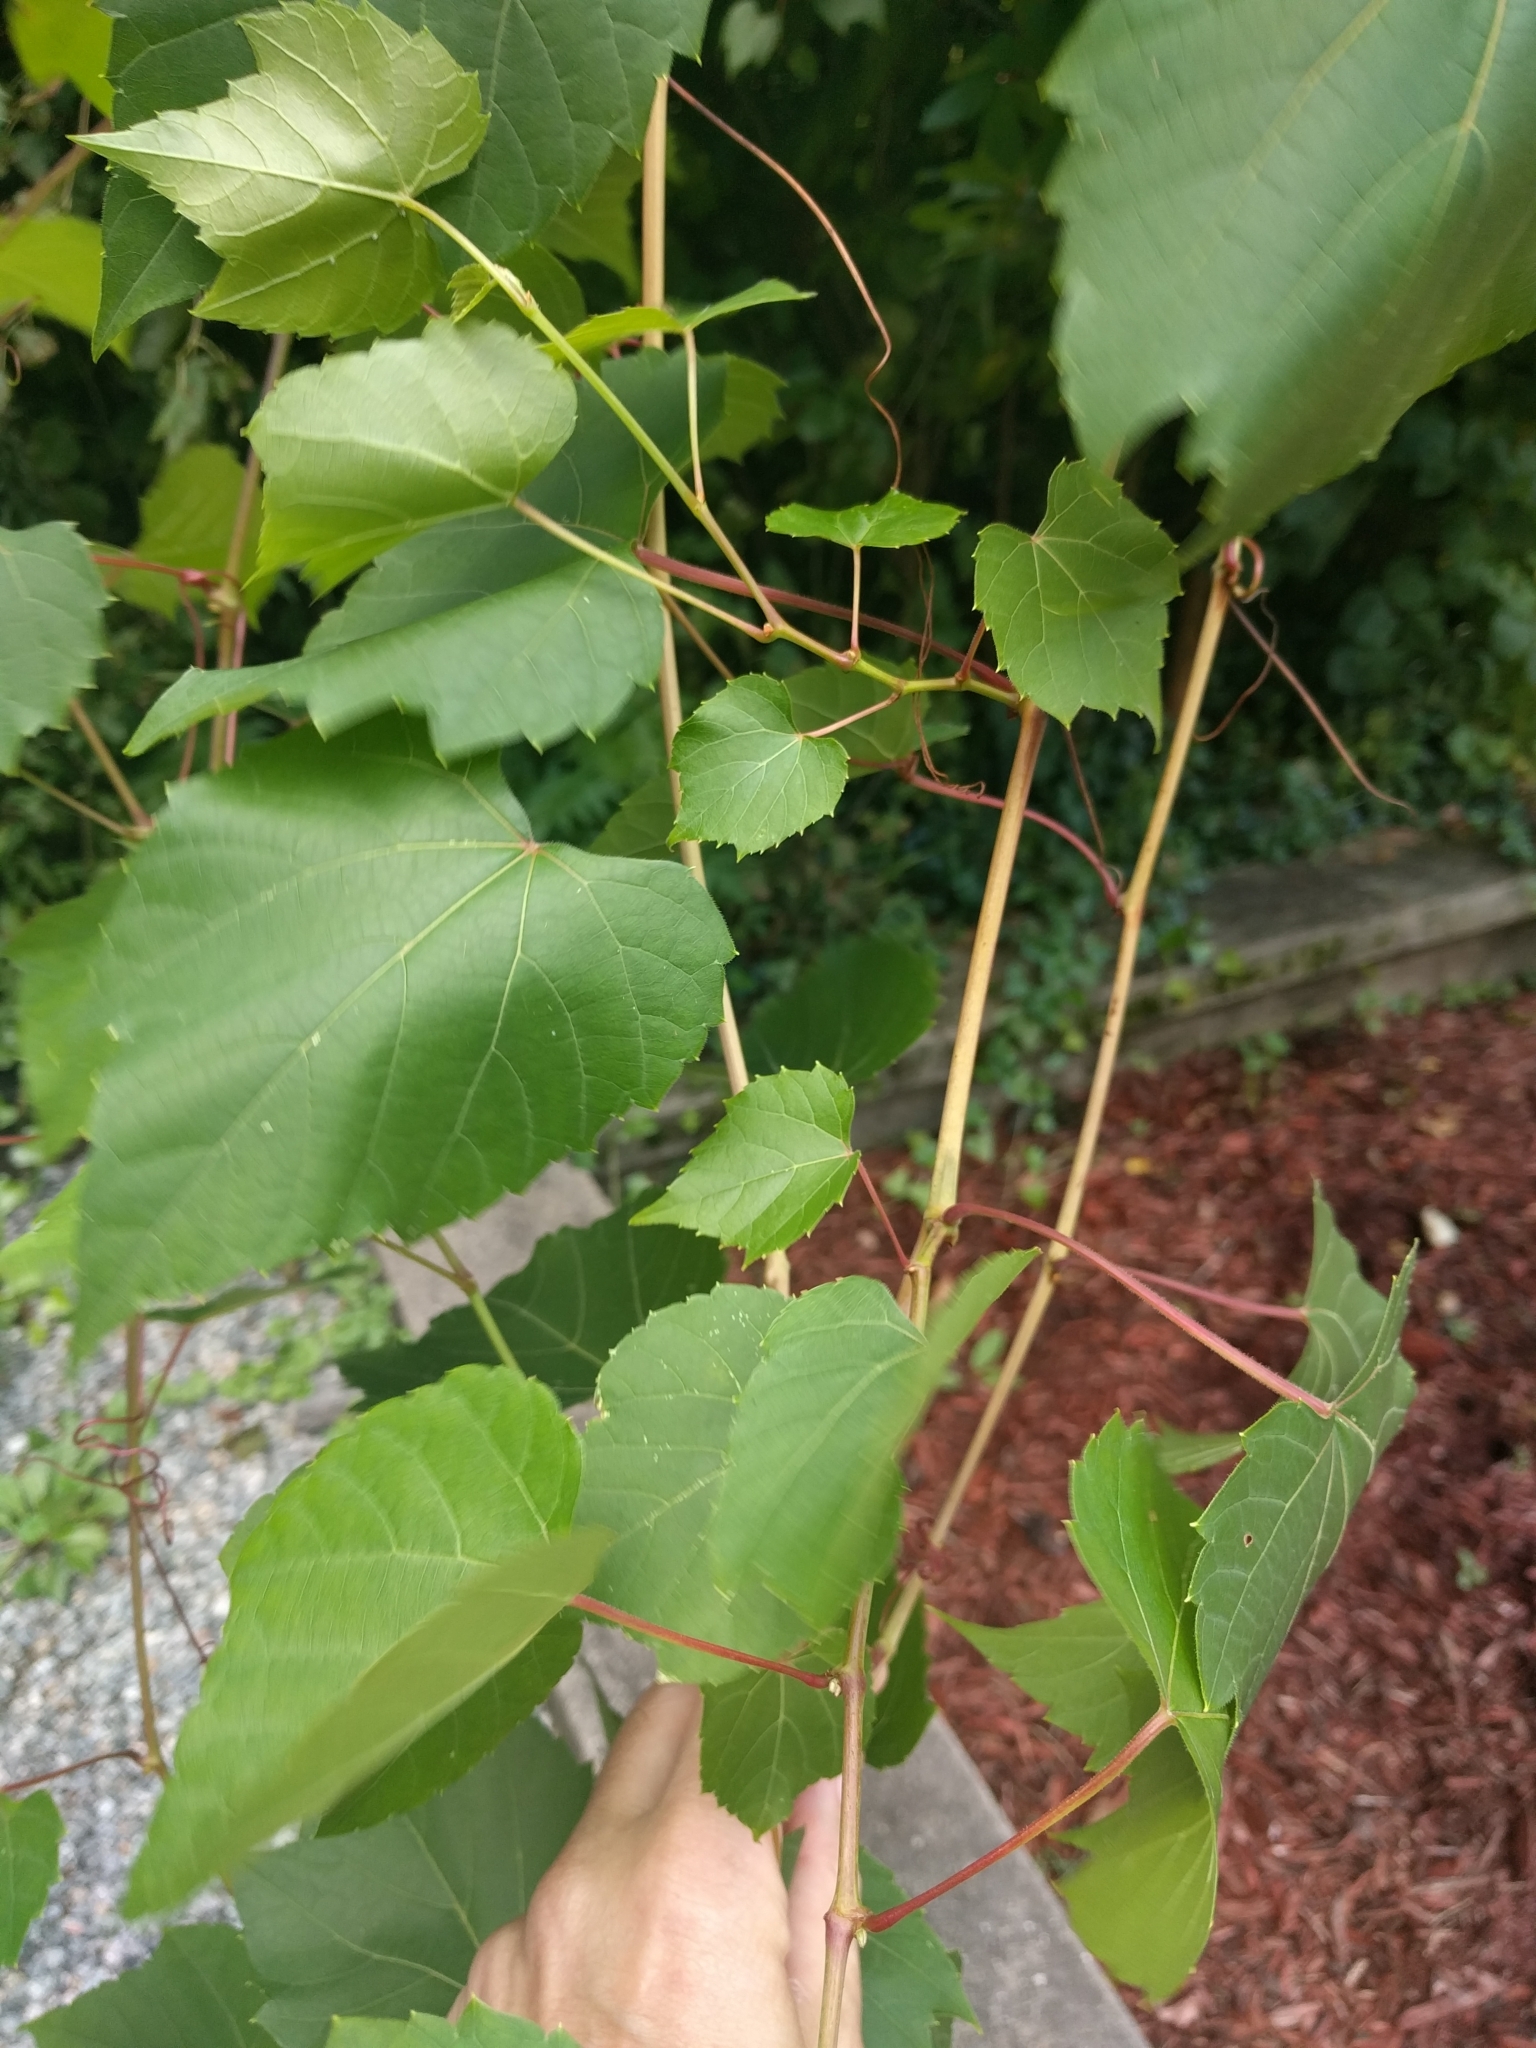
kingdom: Plantae
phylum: Tracheophyta
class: Magnoliopsida
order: Vitales
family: Vitaceae
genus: Ampelopsis
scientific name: Ampelopsis glandulosa
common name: Amur peppervine
